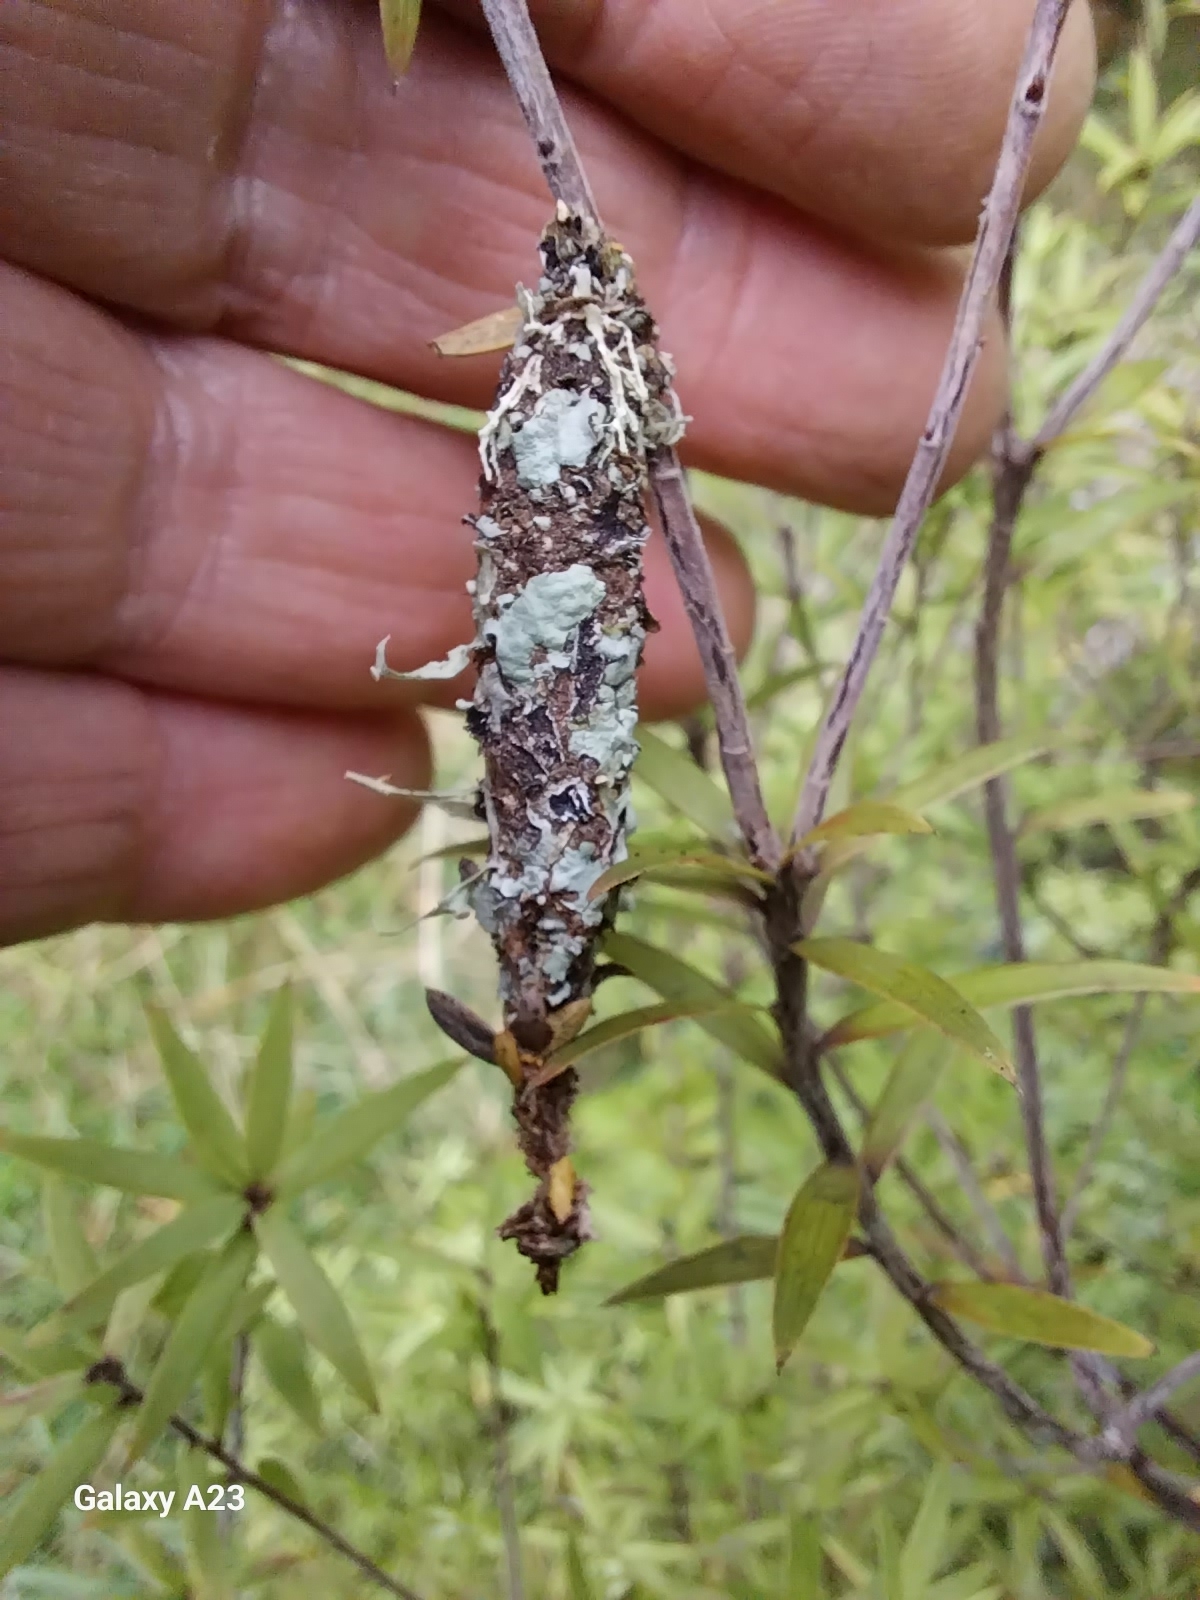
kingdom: Animalia
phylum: Arthropoda
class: Insecta
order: Lepidoptera
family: Psychidae
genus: Liothula
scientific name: Liothula omnivora
